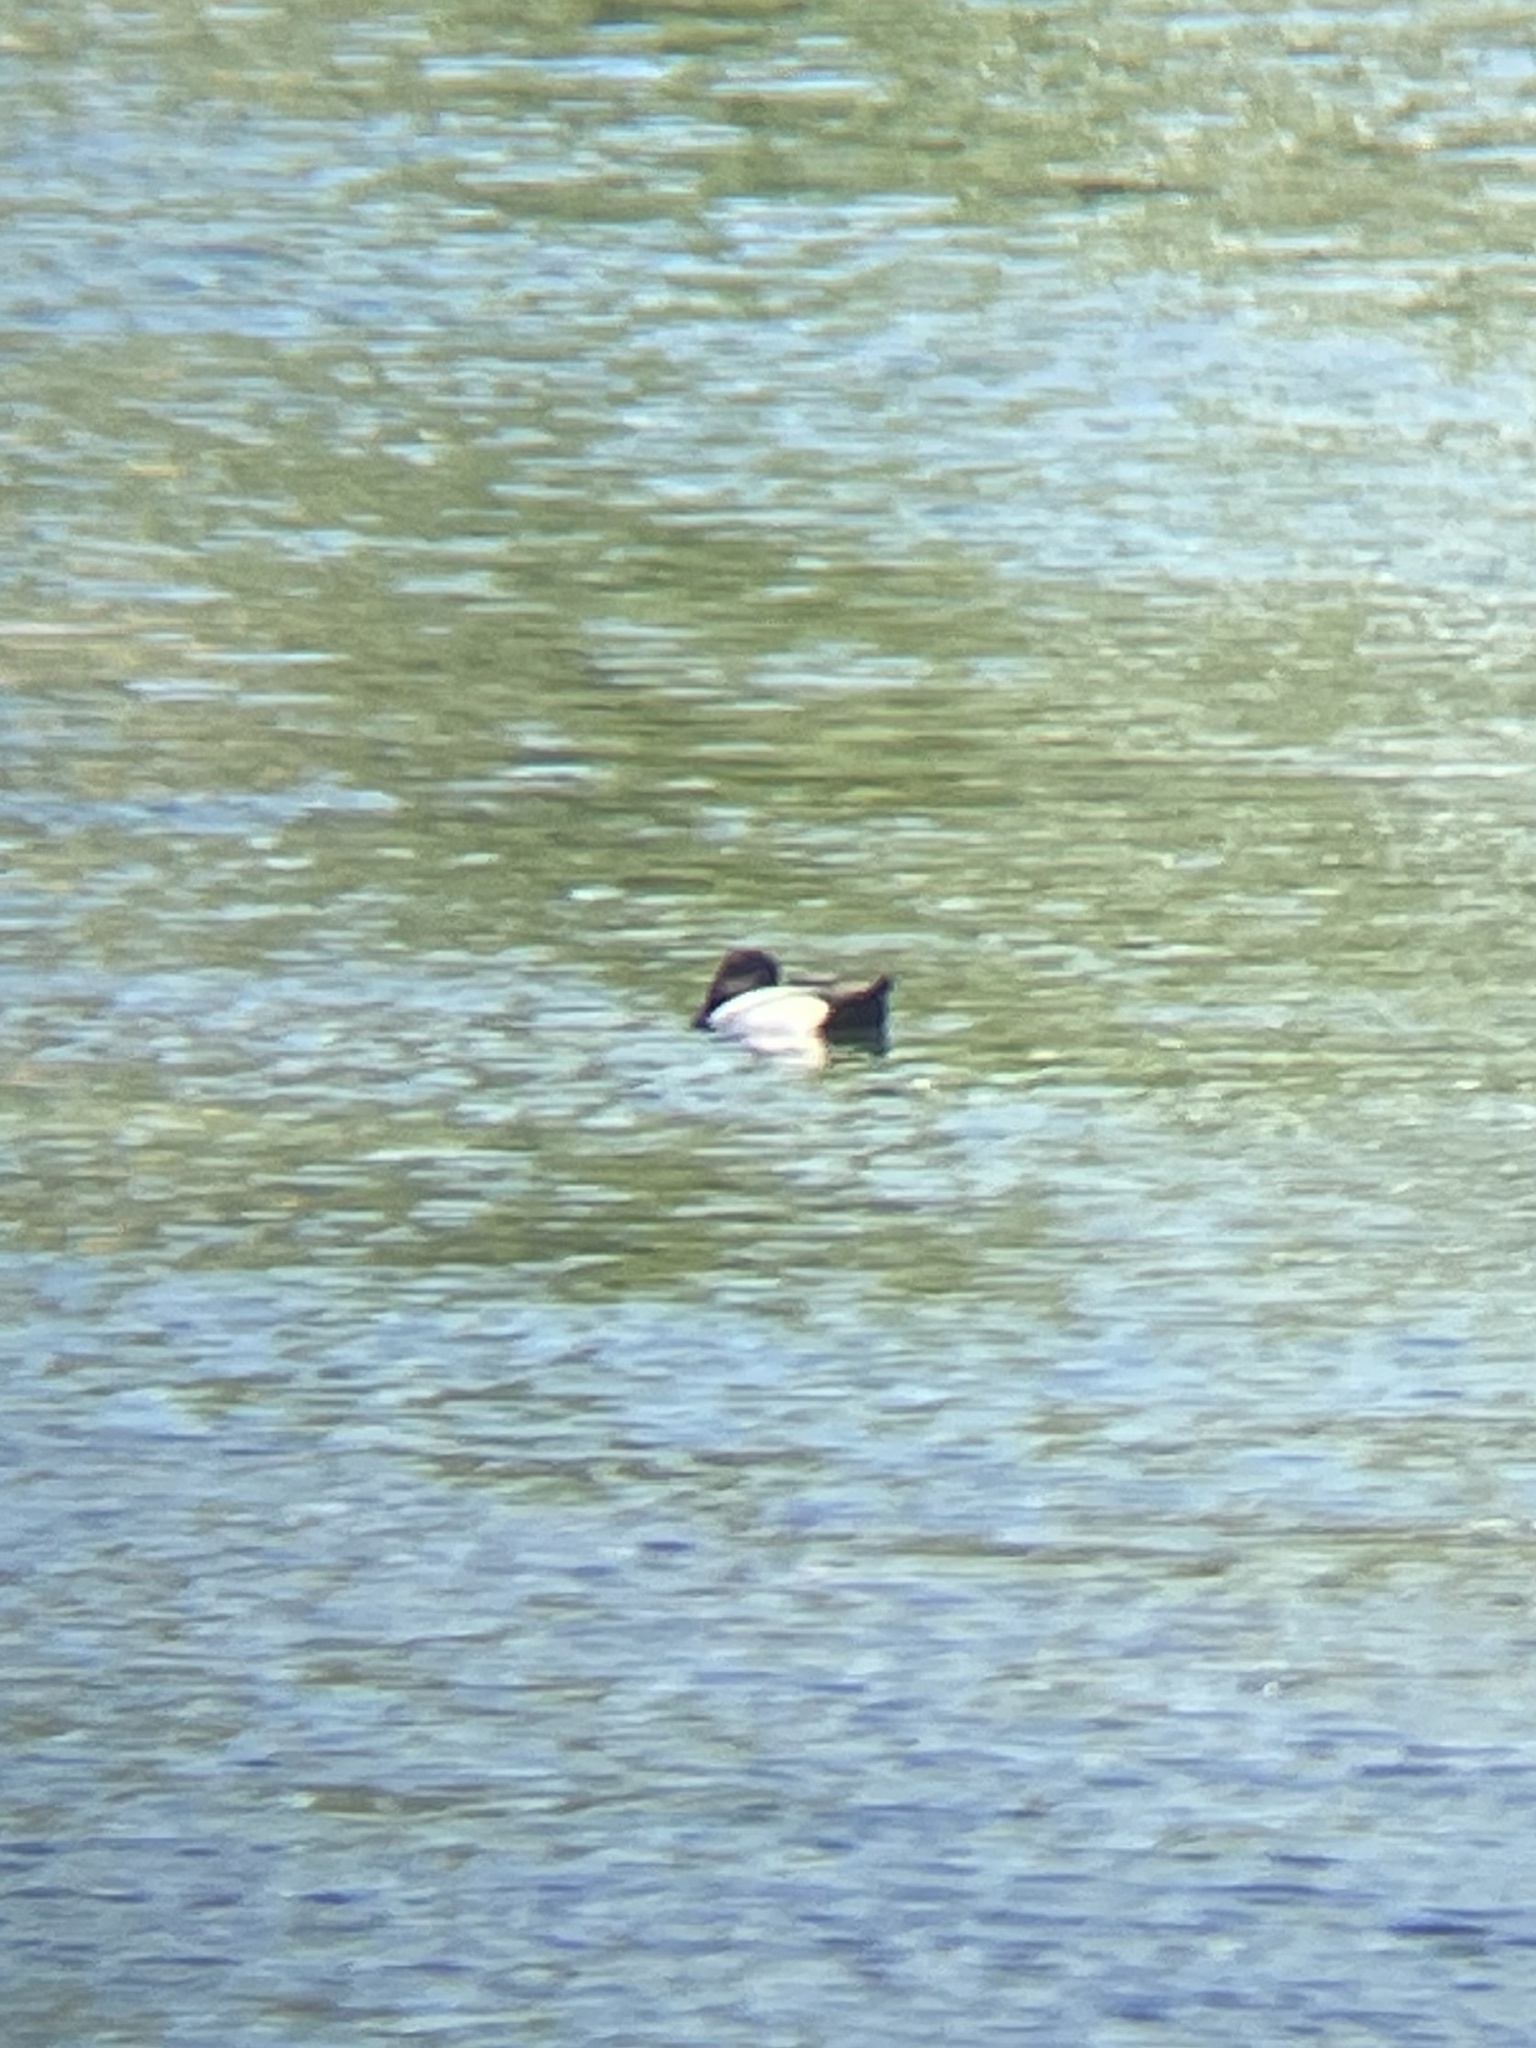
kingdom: Animalia
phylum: Chordata
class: Aves
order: Anseriformes
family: Anatidae
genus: Aythya
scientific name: Aythya affinis
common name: Lesser scaup
